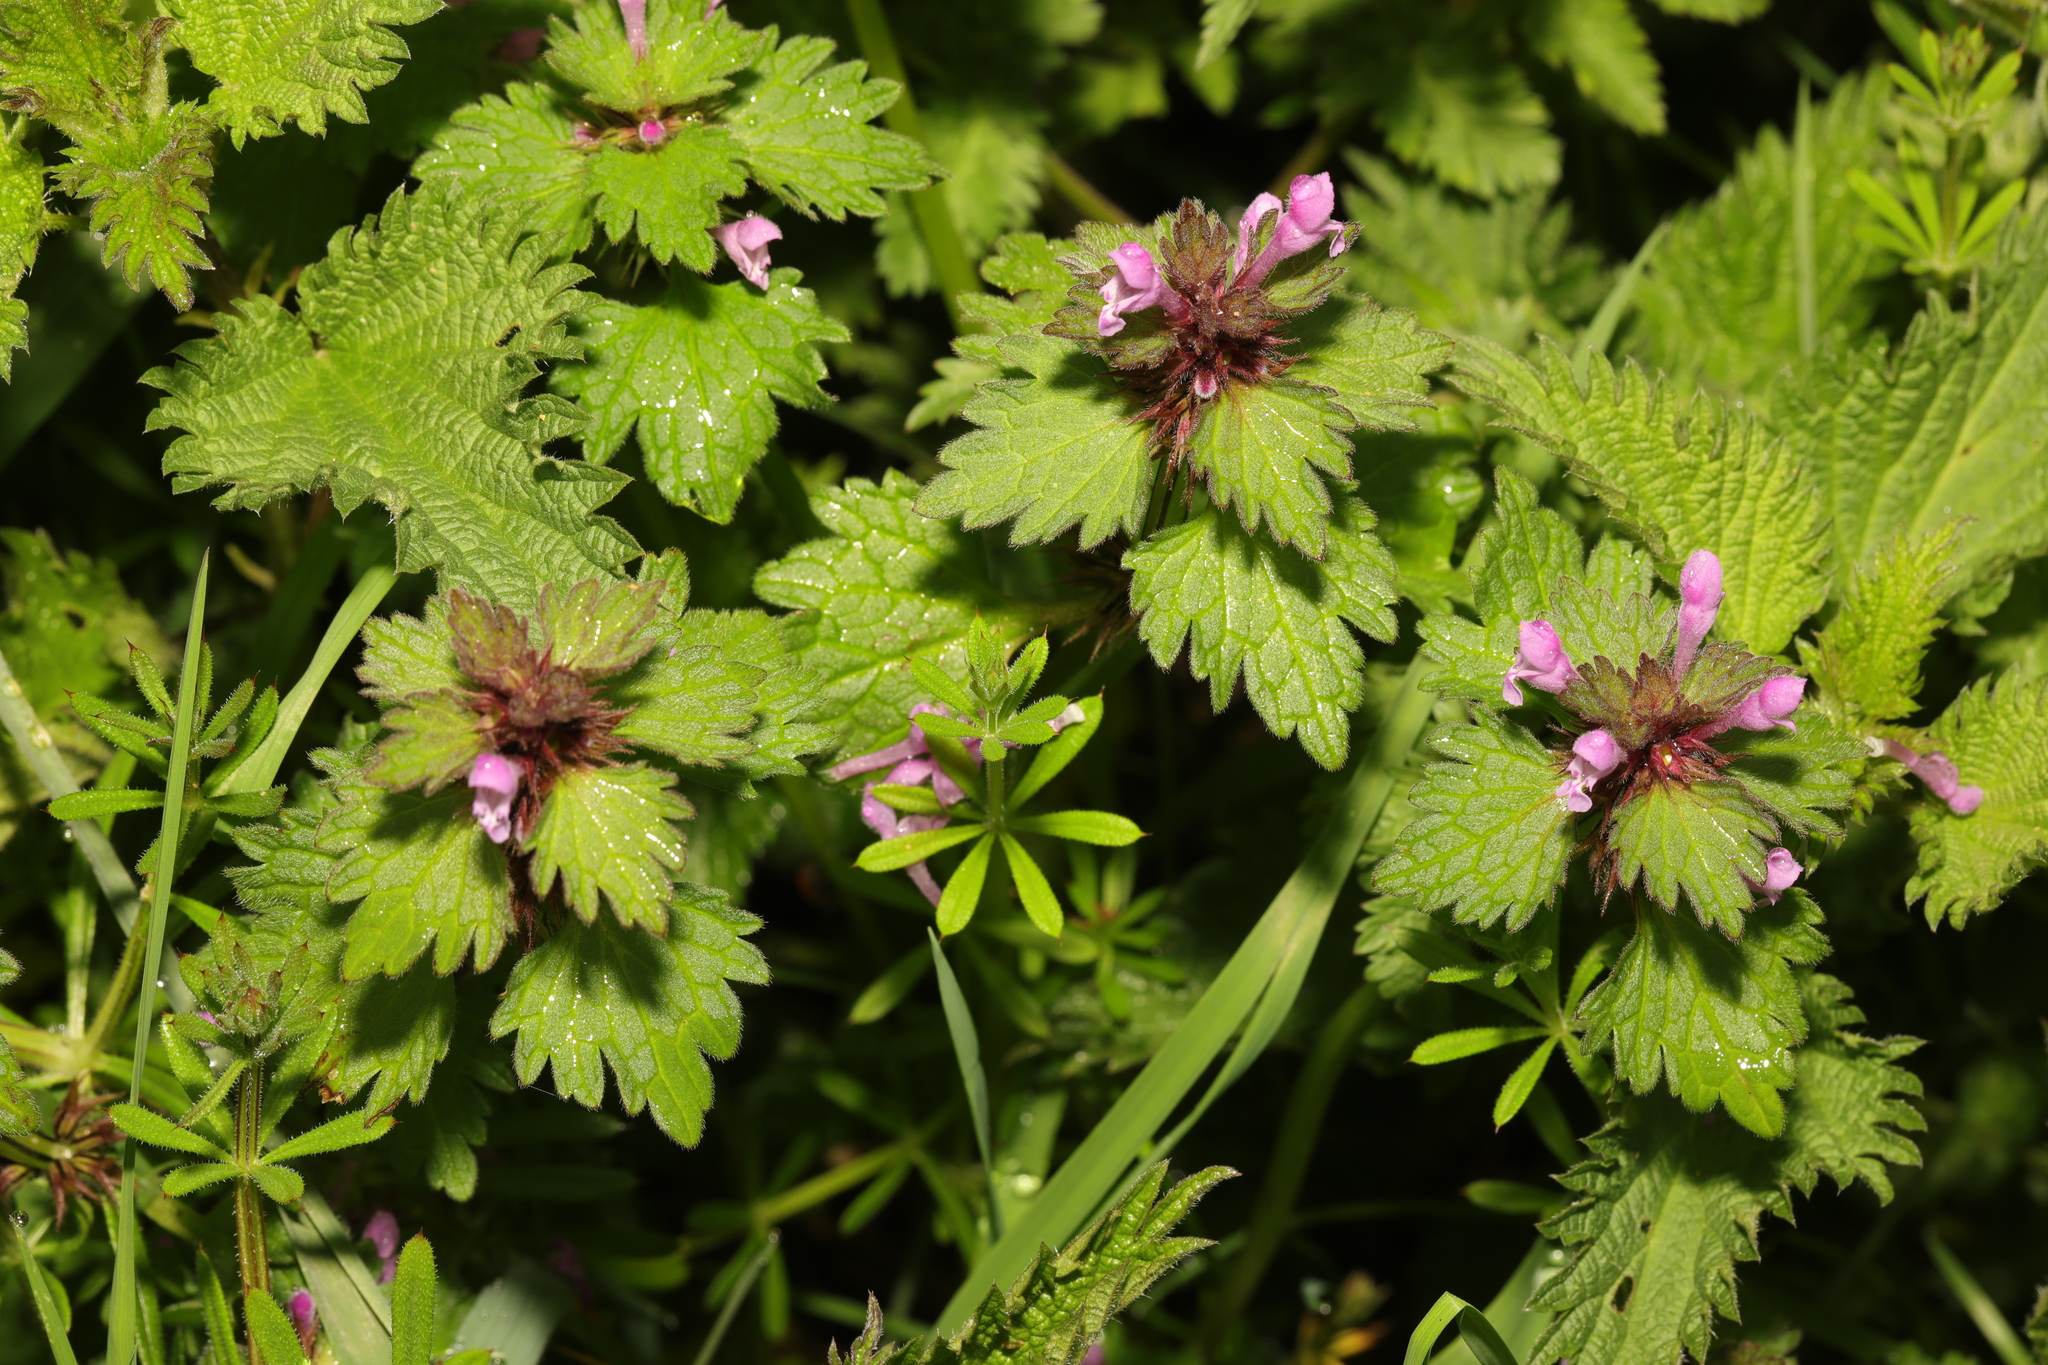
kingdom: Plantae
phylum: Tracheophyta
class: Magnoliopsida
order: Lamiales
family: Lamiaceae
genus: Lamium
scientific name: Lamium hybridum
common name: Cut-leaved dead-nettle
